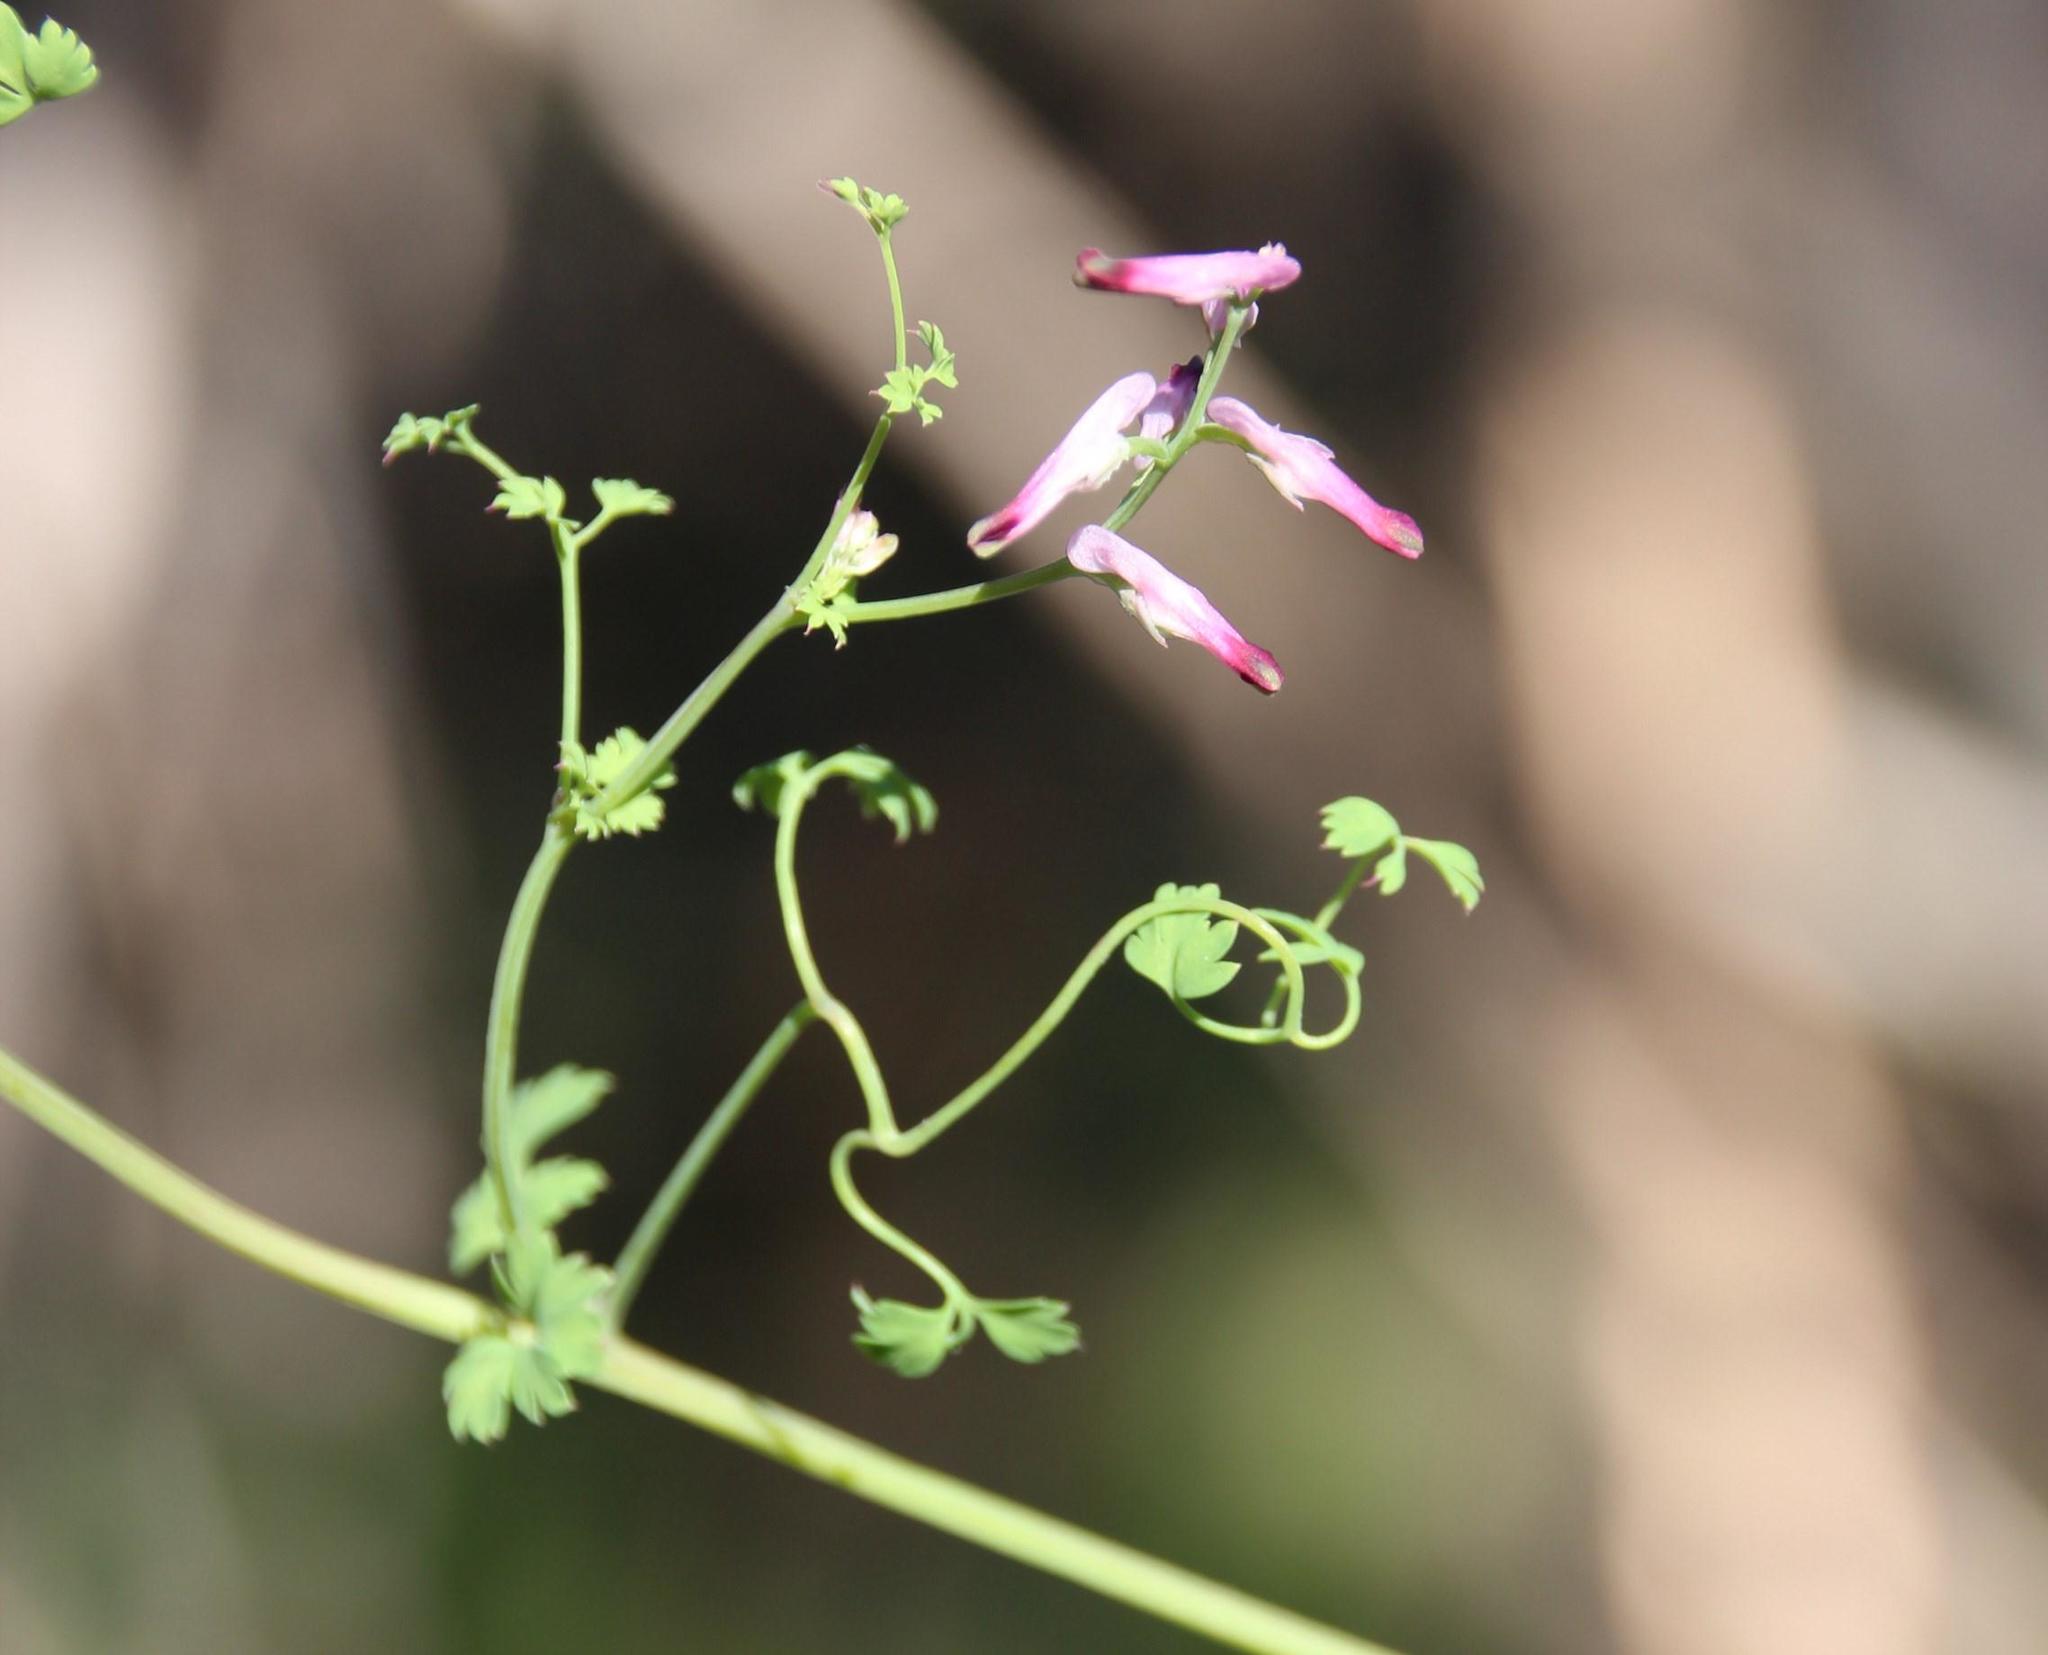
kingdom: Plantae
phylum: Tracheophyta
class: Magnoliopsida
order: Ranunculales
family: Papaveraceae
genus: Fumaria
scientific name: Fumaria muralis
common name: Common ramping-fumitory
